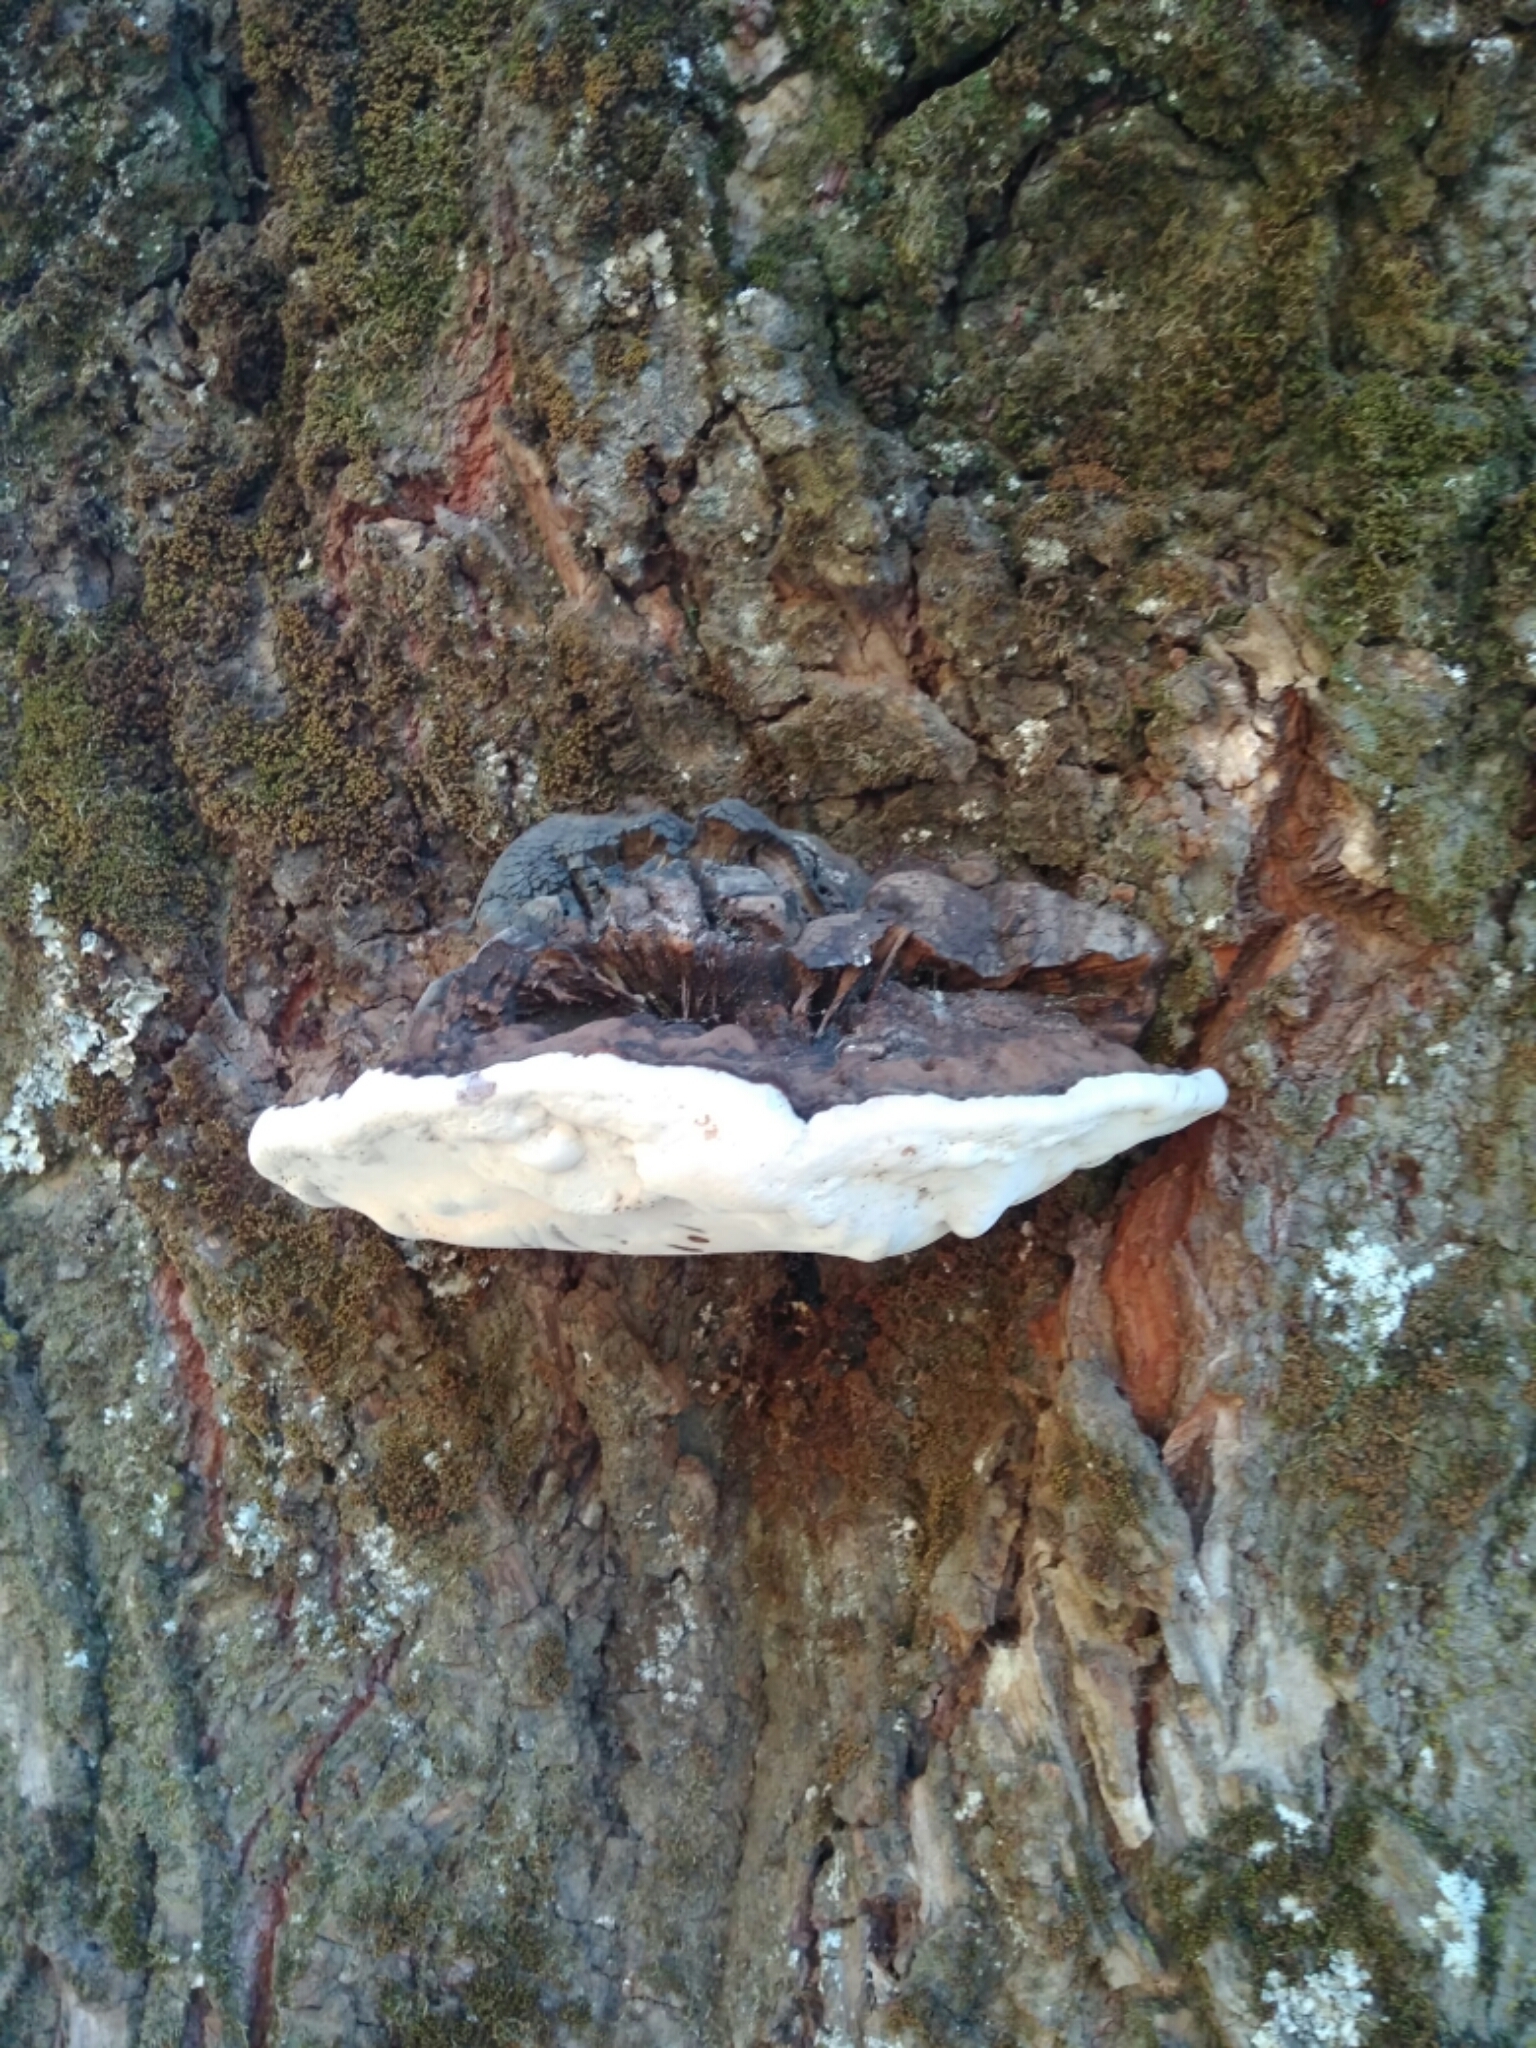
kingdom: Fungi
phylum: Basidiomycota
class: Agaricomycetes
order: Polyporales
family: Polyporaceae
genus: Ganoderma
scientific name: Ganoderma australe
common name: Southern bracket
